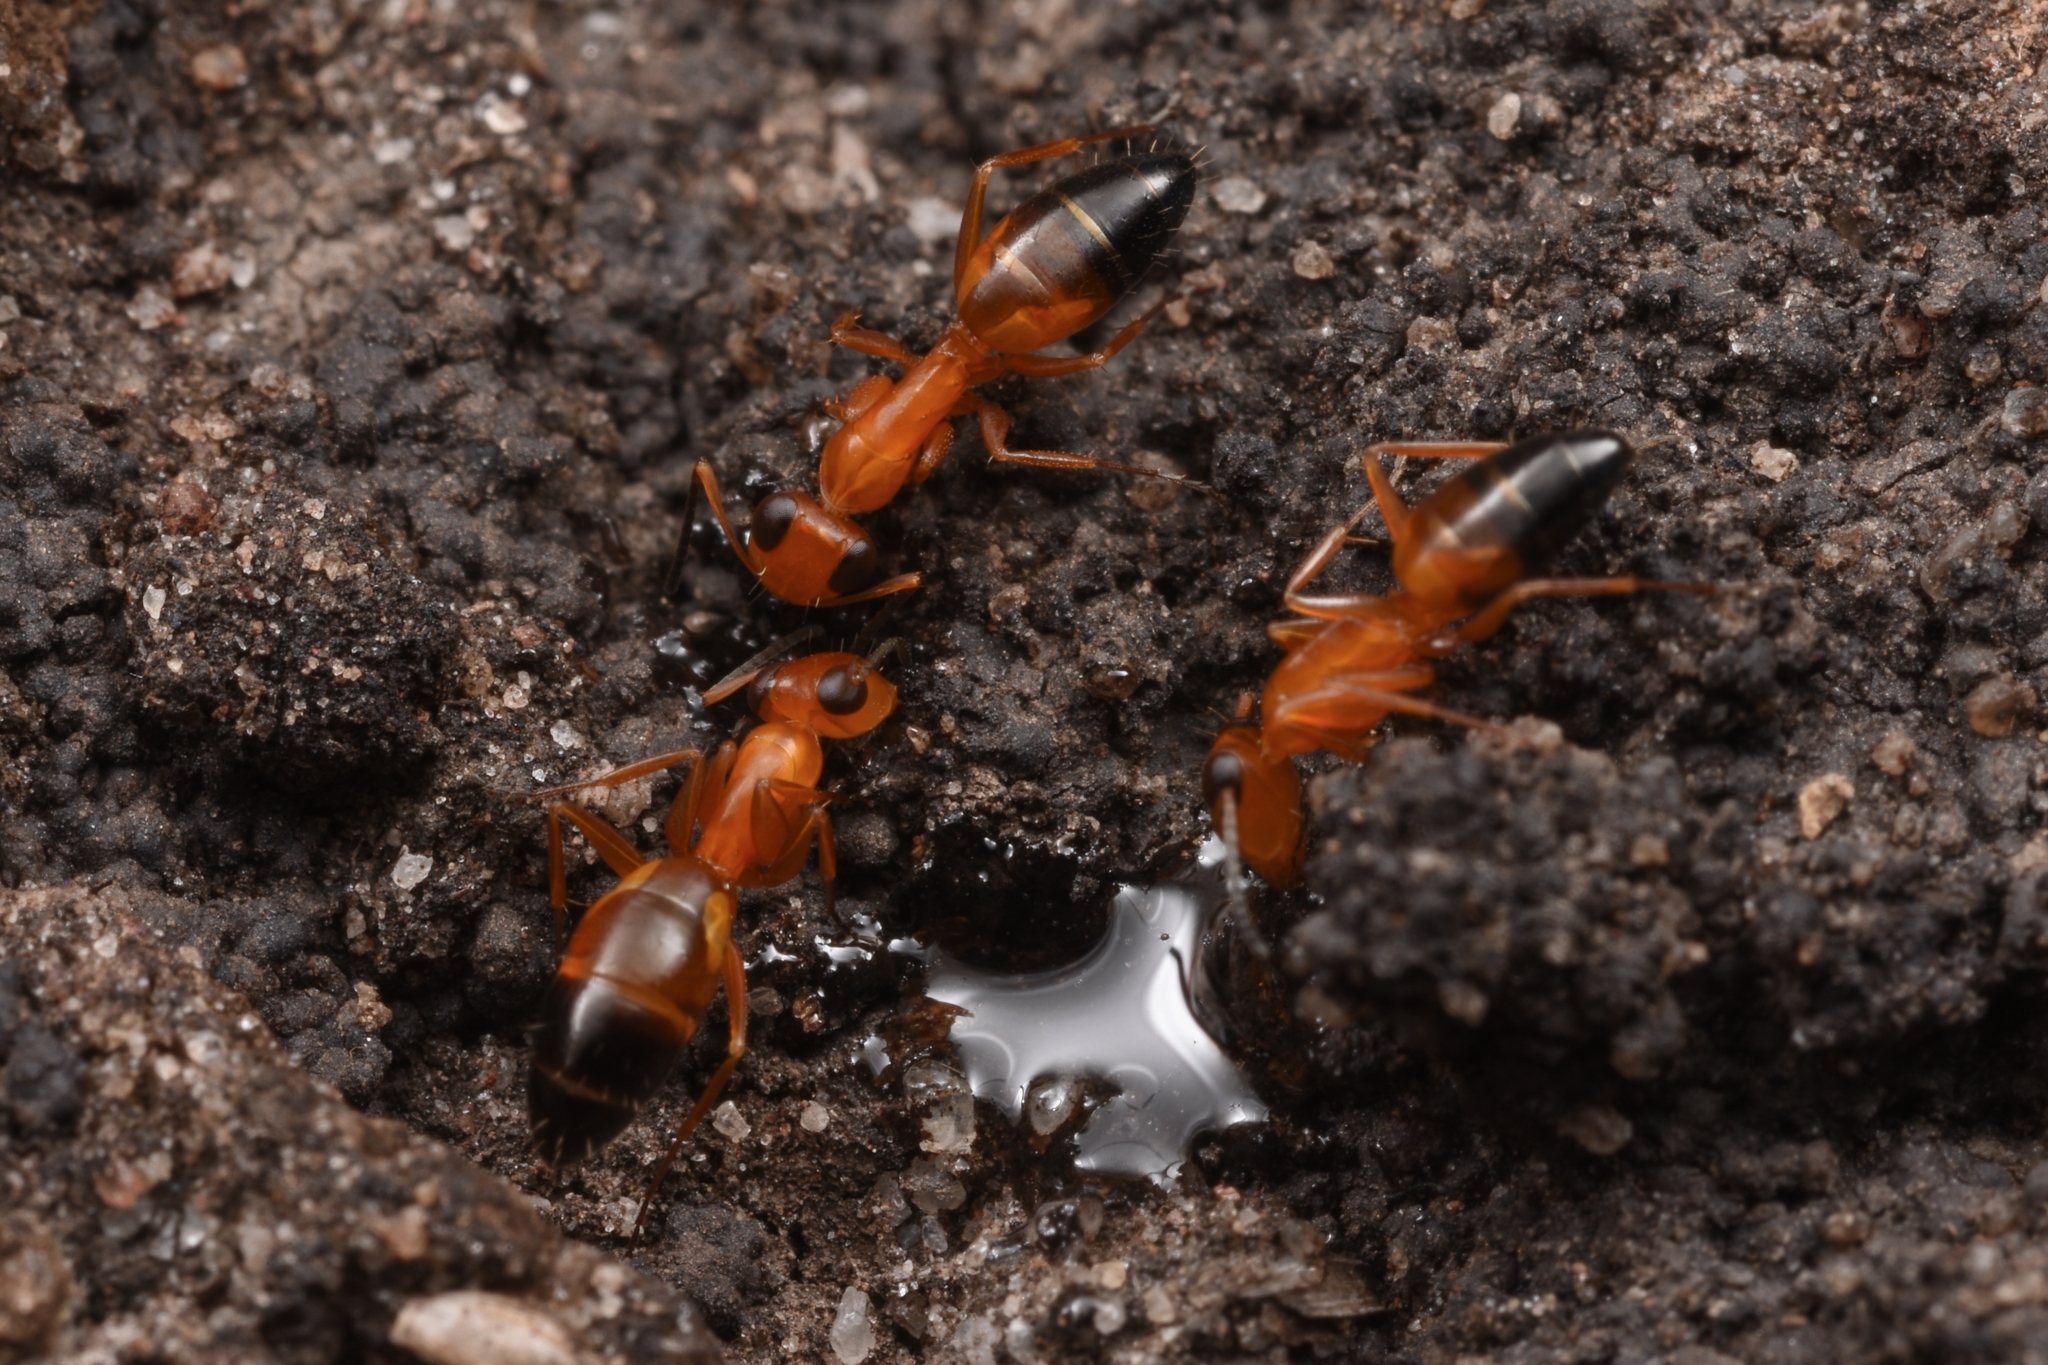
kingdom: Animalia
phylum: Arthropoda
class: Insecta
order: Hymenoptera
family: Formicidae
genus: Opisthopsis
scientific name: Opisthopsis haddoni
